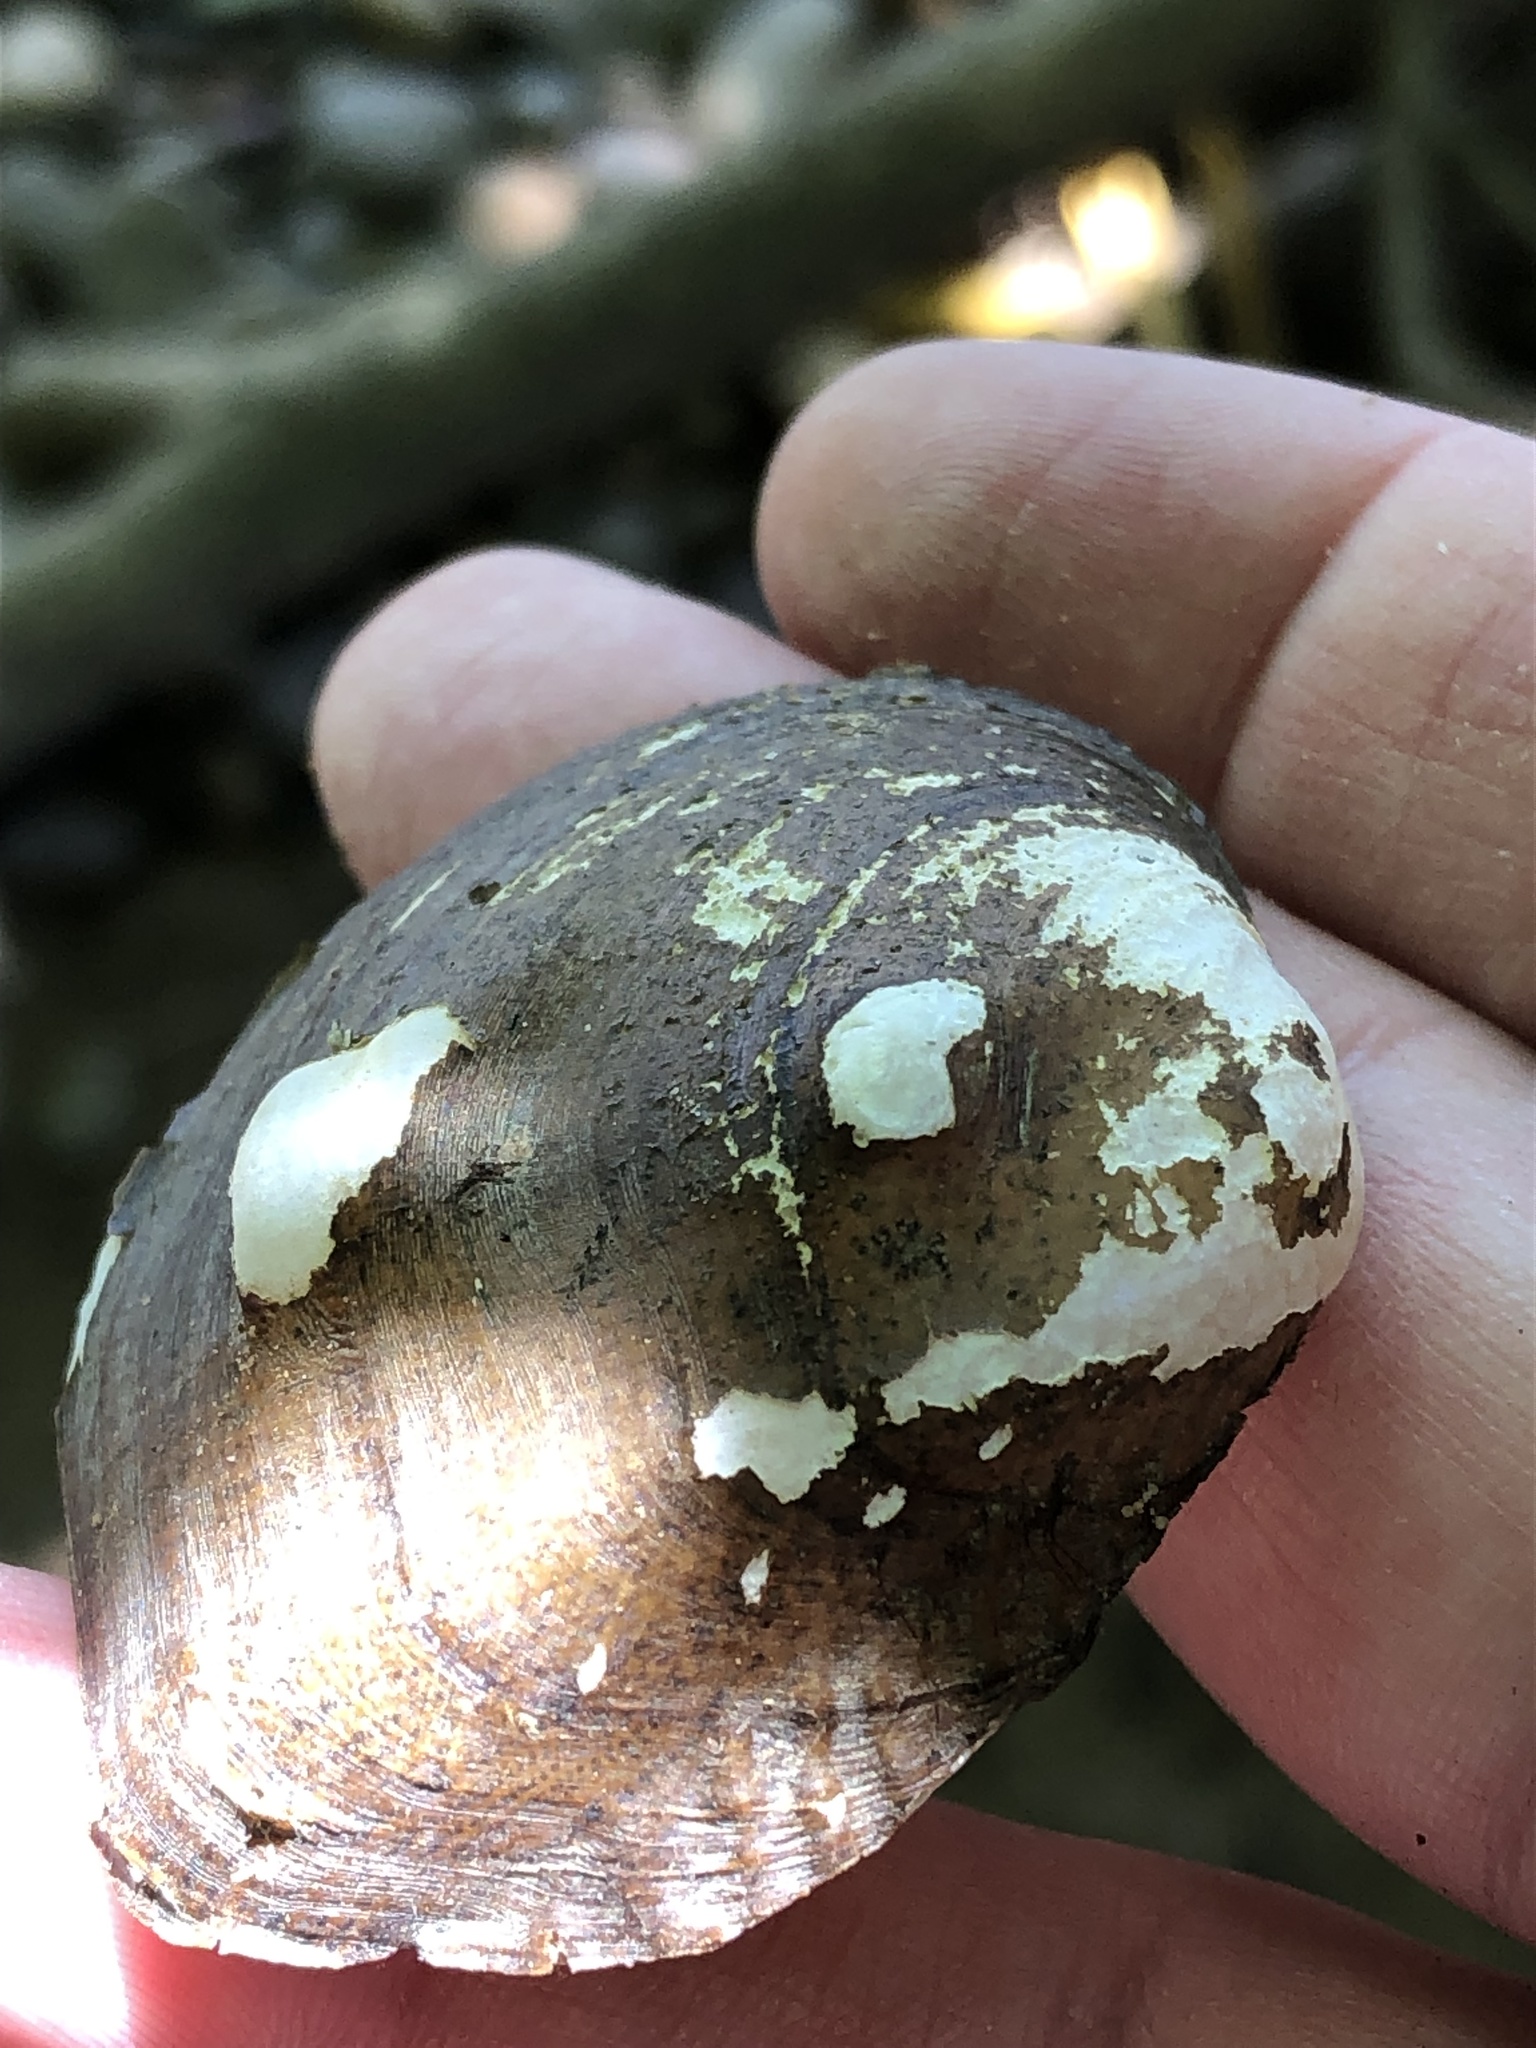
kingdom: Animalia
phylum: Mollusca
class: Bivalvia
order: Unionida
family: Unionidae
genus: Obliquaria
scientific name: Obliquaria reflexa
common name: Threehorn wartyback
